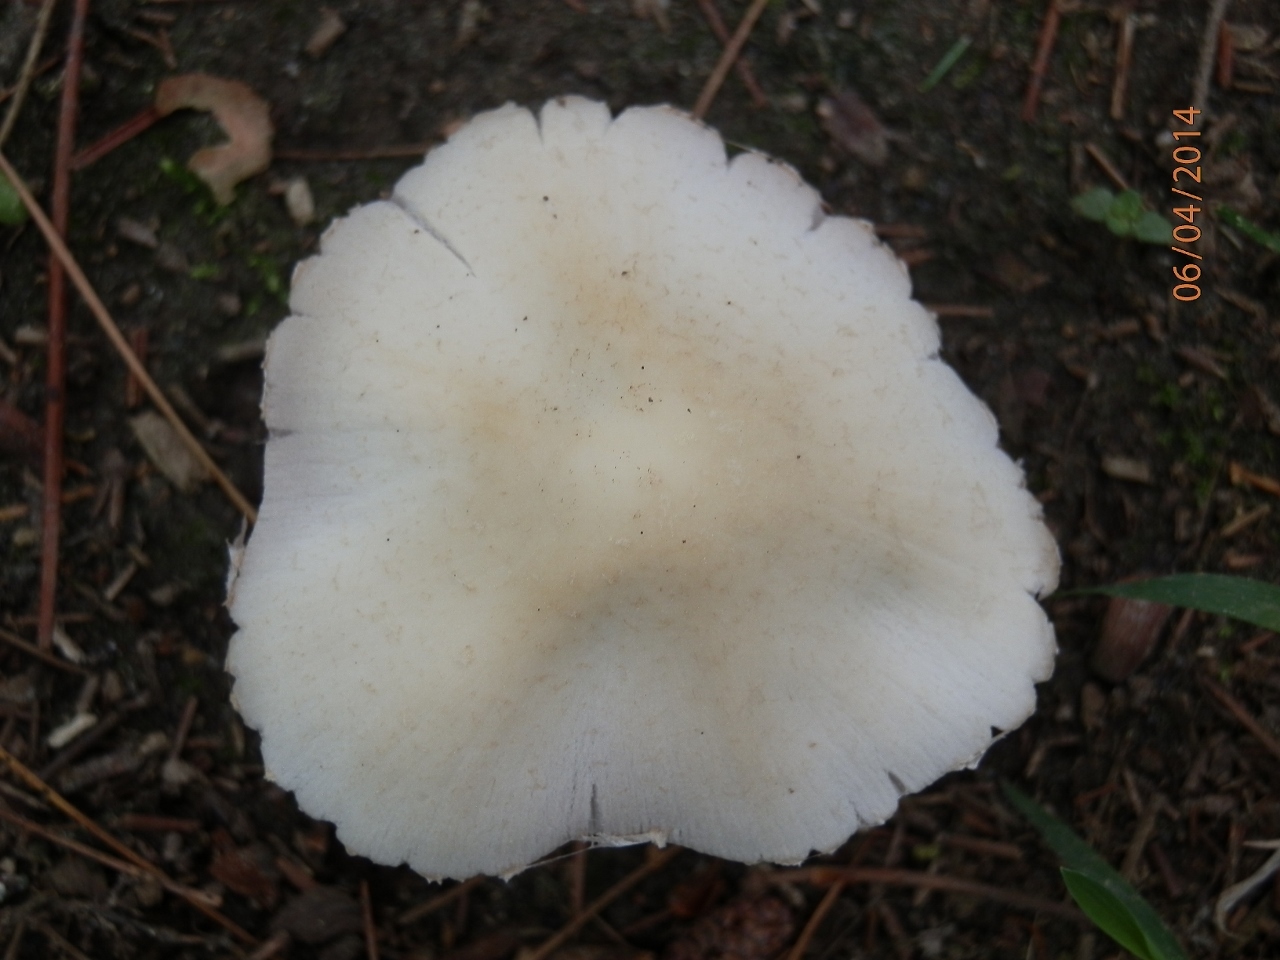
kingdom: Fungi
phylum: Basidiomycota
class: Agaricomycetes
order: Agaricales
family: Psathyrellaceae
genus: Candolleomyces
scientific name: Candolleomyces candolleanus
